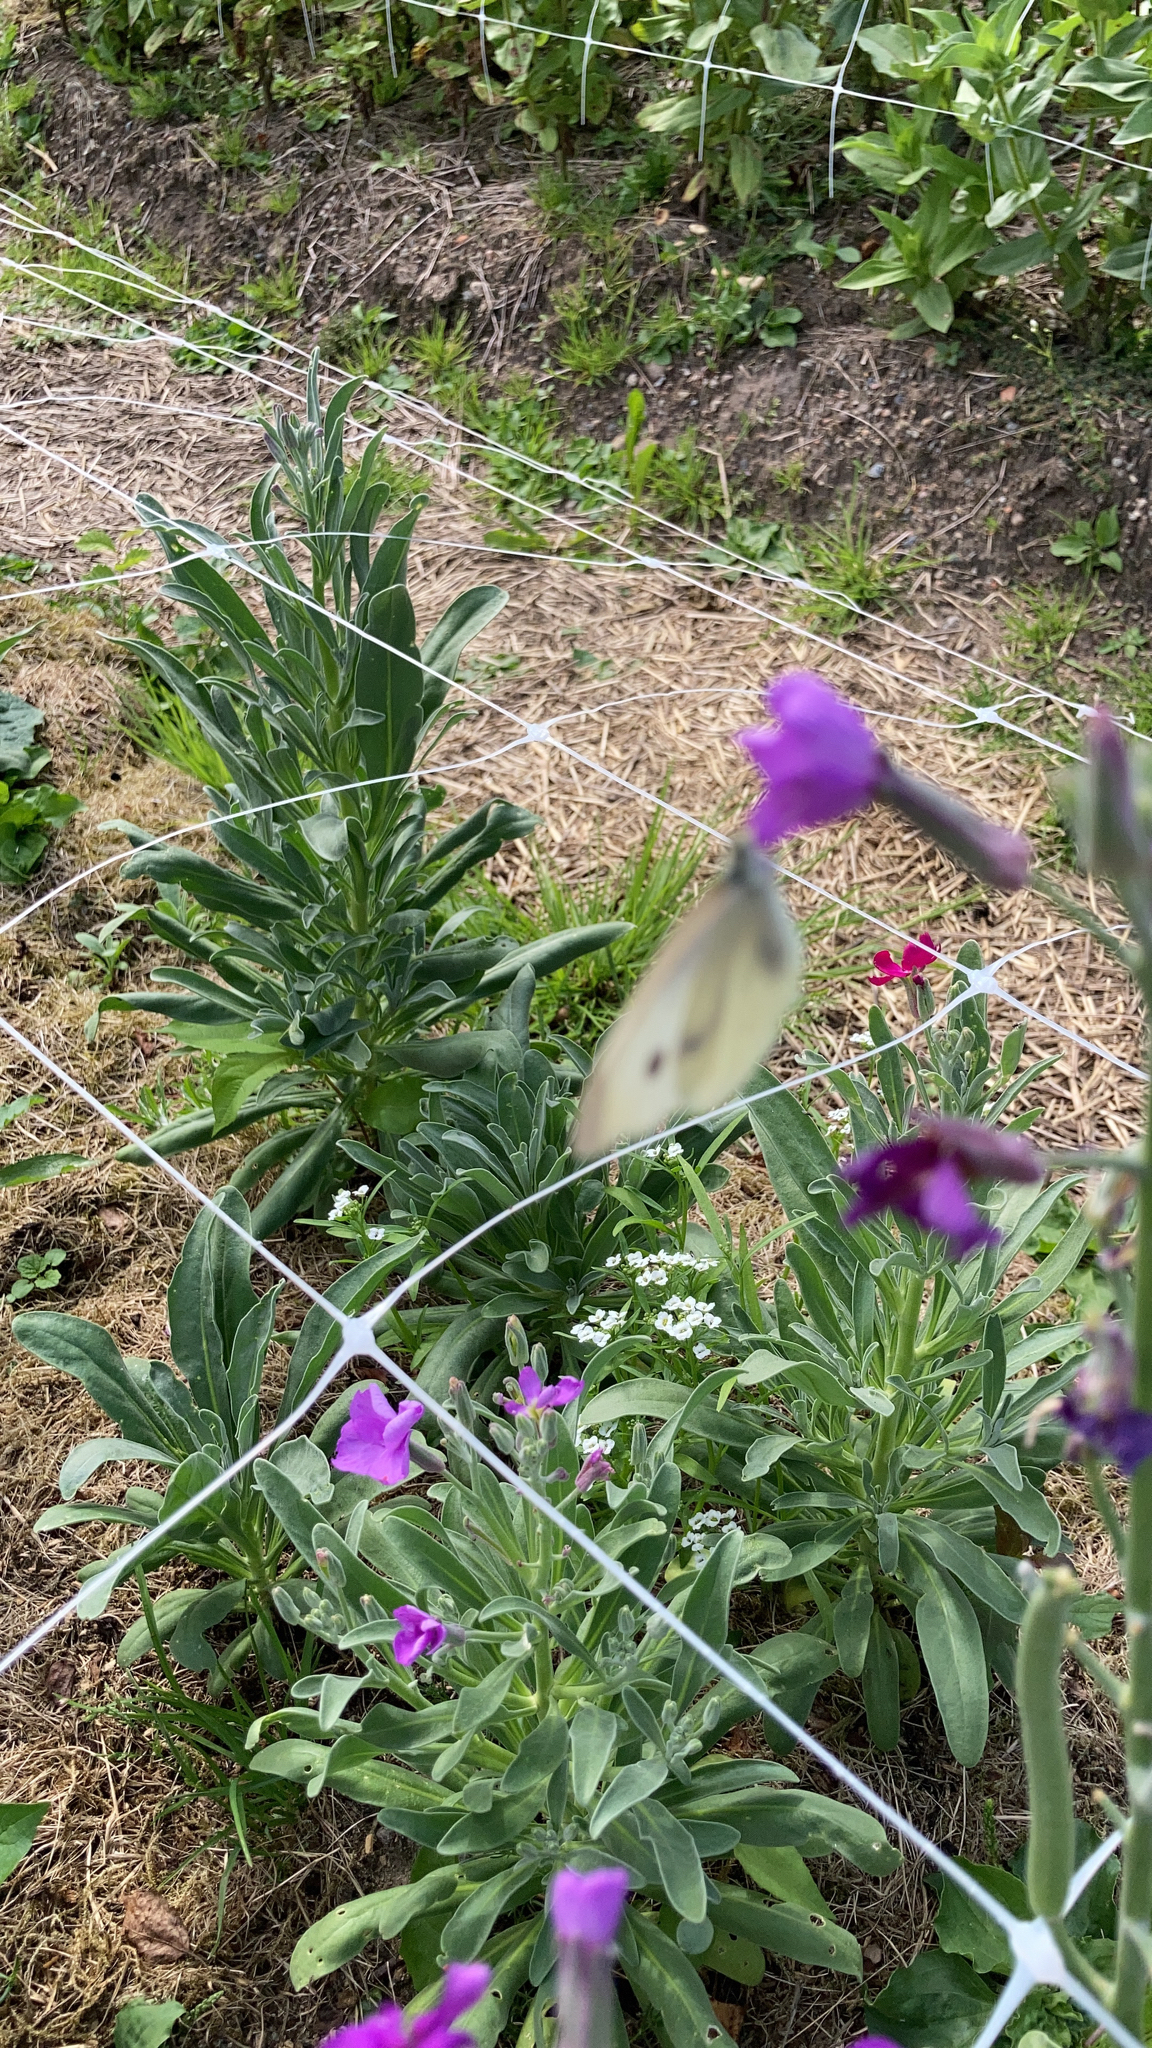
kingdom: Animalia
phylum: Arthropoda
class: Insecta
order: Lepidoptera
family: Pieridae
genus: Pieris
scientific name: Pieris rapae
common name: Small white
